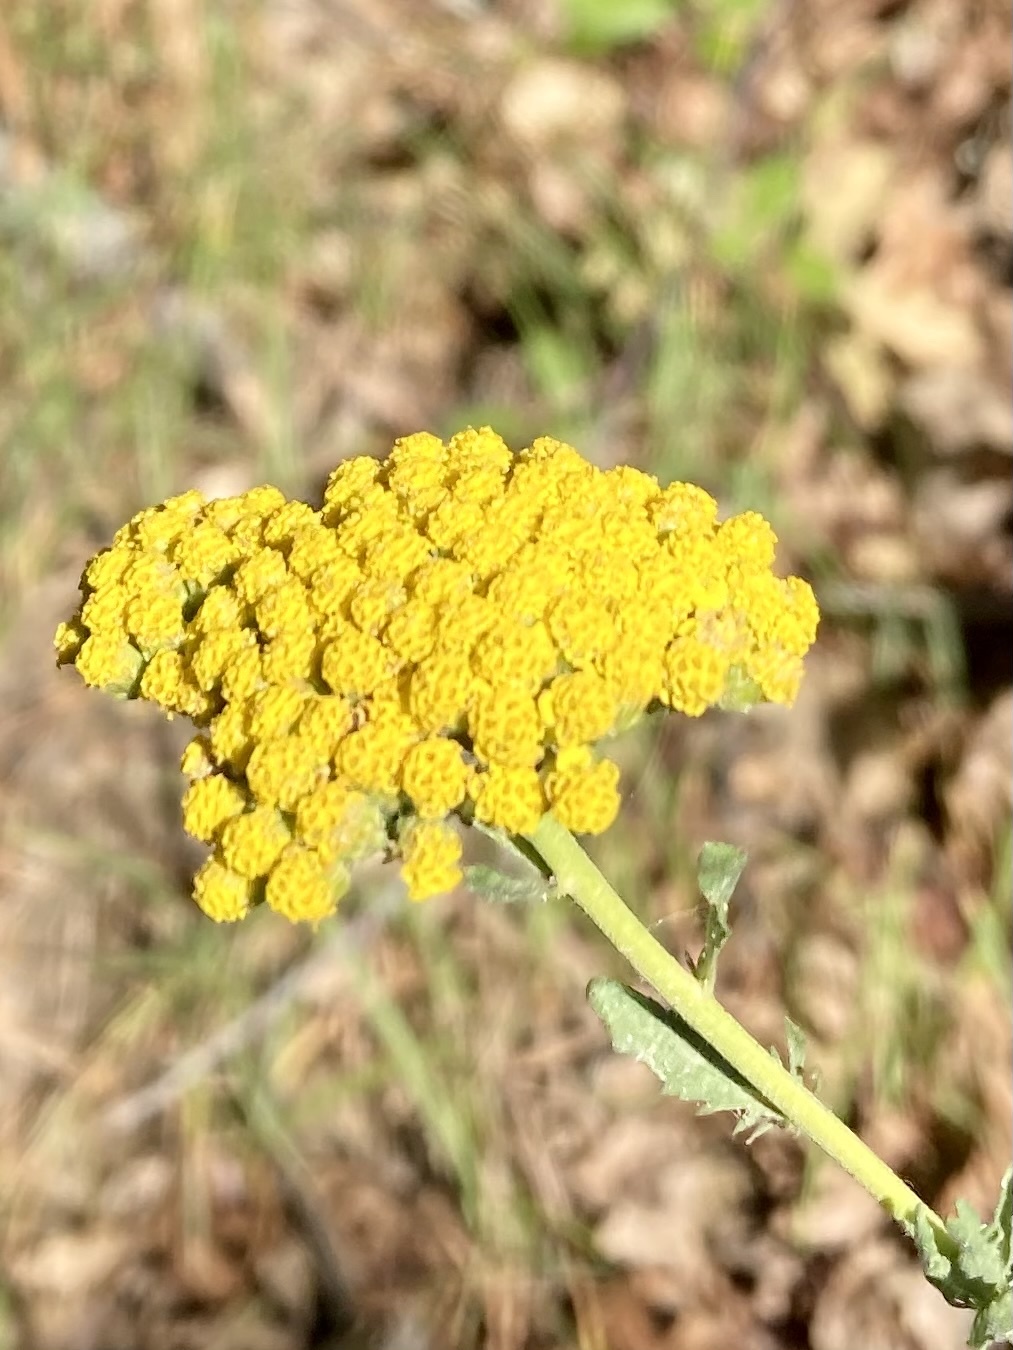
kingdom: Plantae
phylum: Tracheophyta
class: Magnoliopsida
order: Asterales
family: Asteraceae
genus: Achillea
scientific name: Achillea ageratum
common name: Sweet-nancy
